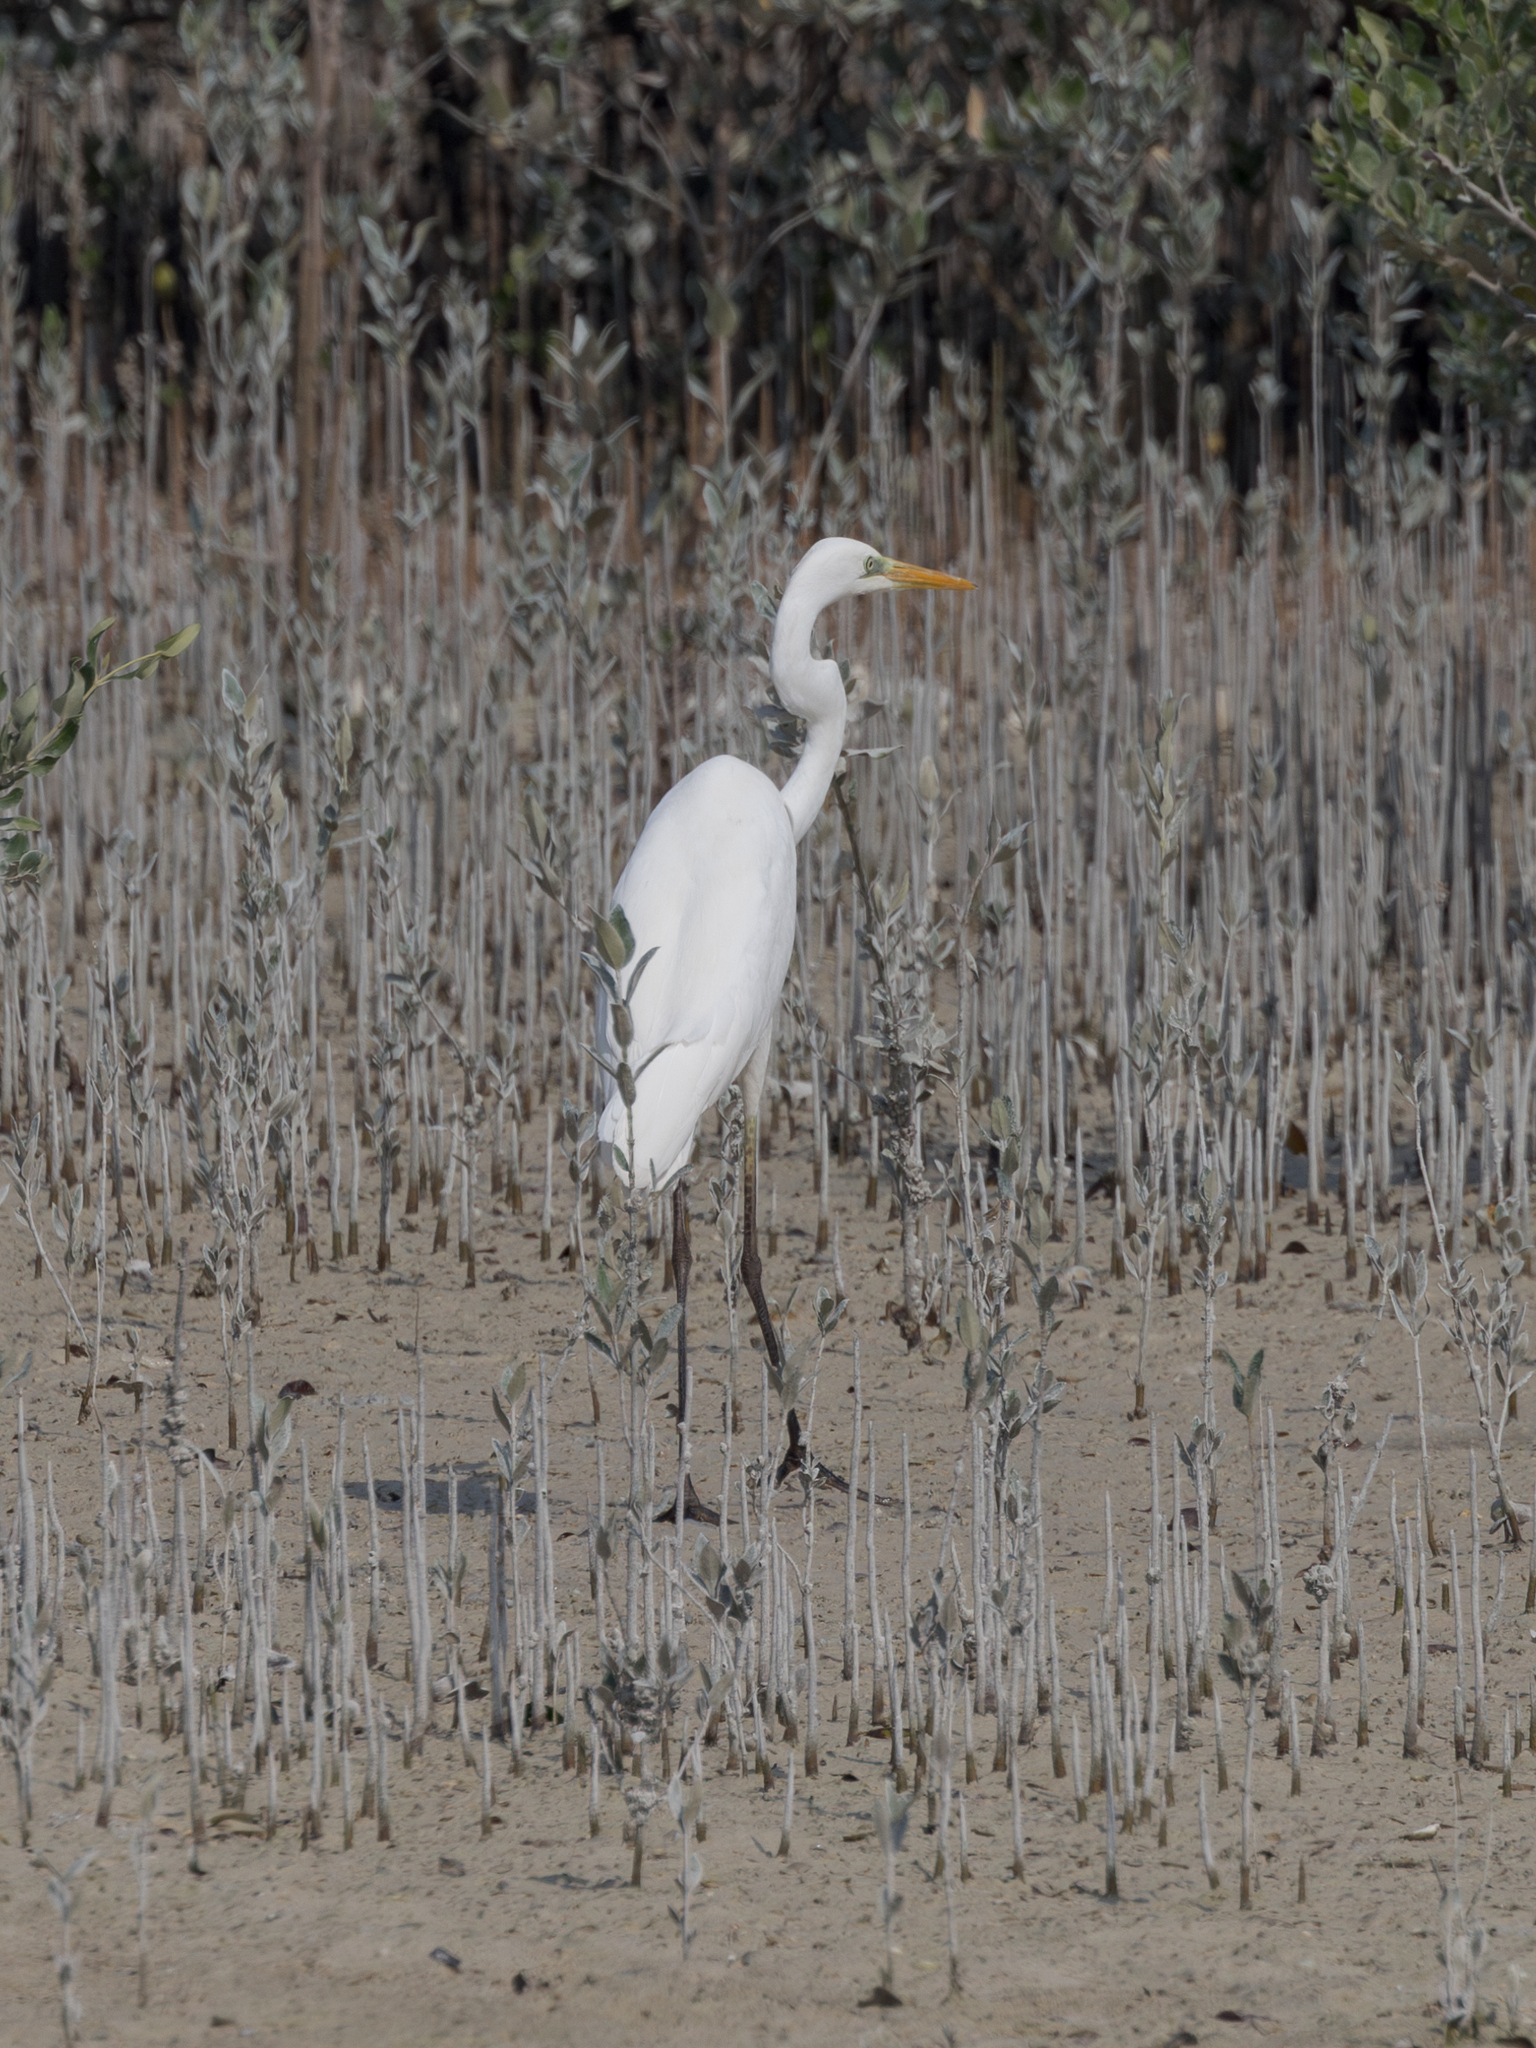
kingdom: Animalia
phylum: Chordata
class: Aves
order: Pelecaniformes
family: Ardeidae
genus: Ardea
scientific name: Ardea alba
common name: Great egret
